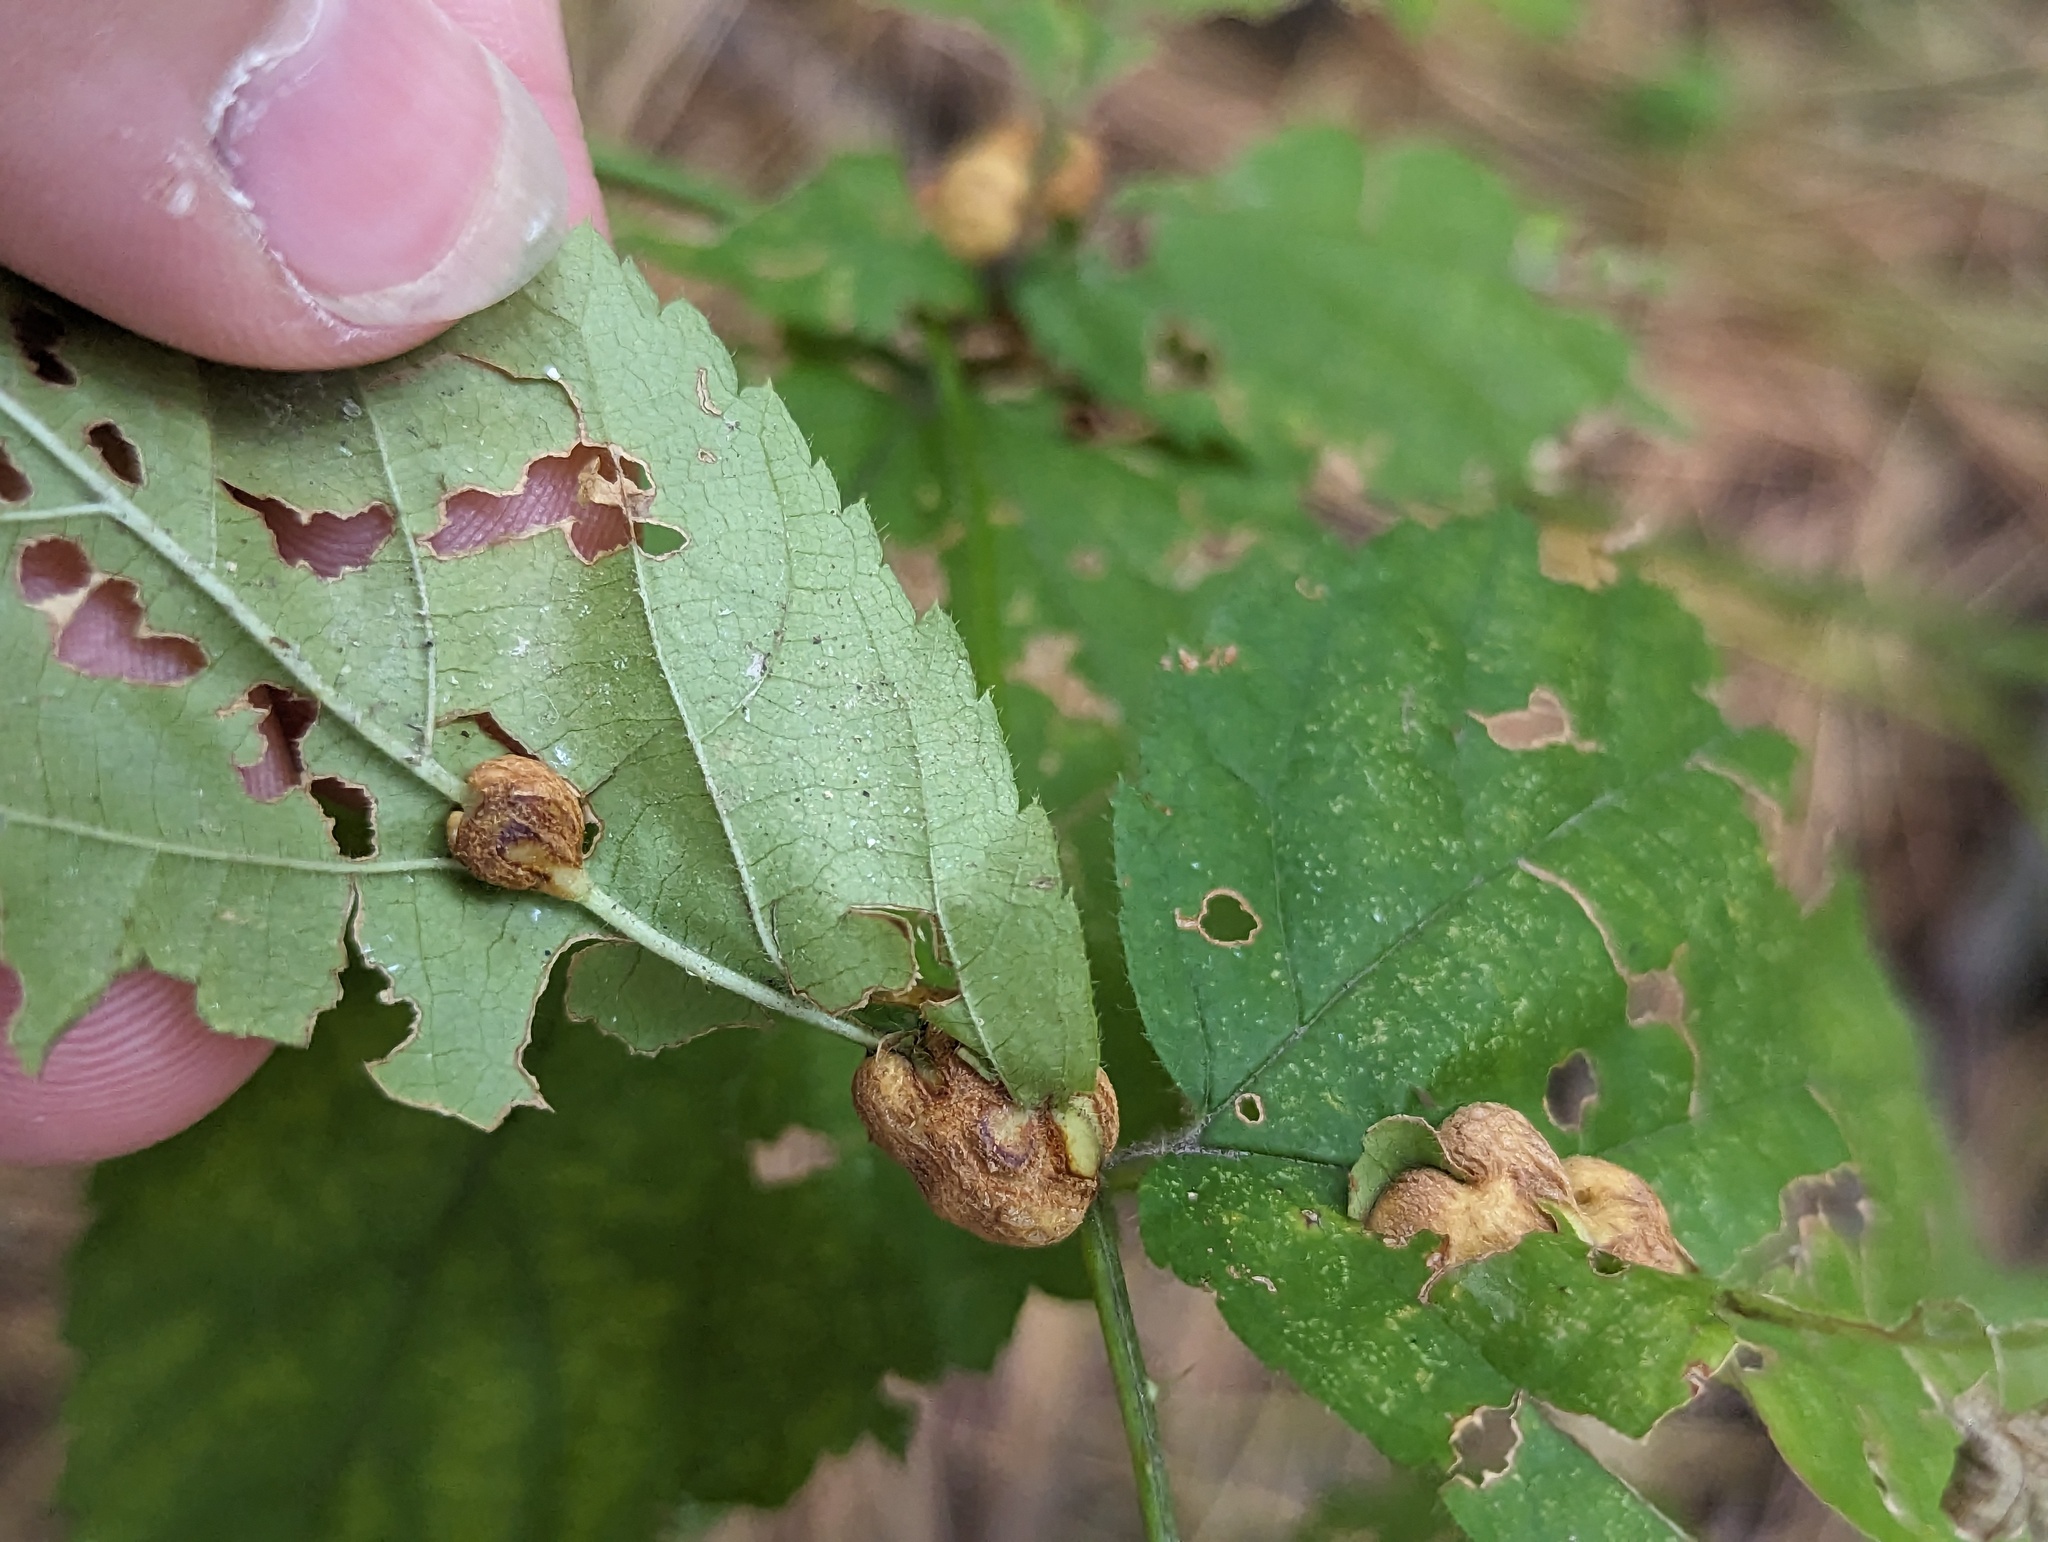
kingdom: Animalia
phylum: Arthropoda
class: Insecta
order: Diptera
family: Cecidomyiidae
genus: Neolasioptera
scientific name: Neolasioptera farinosa
